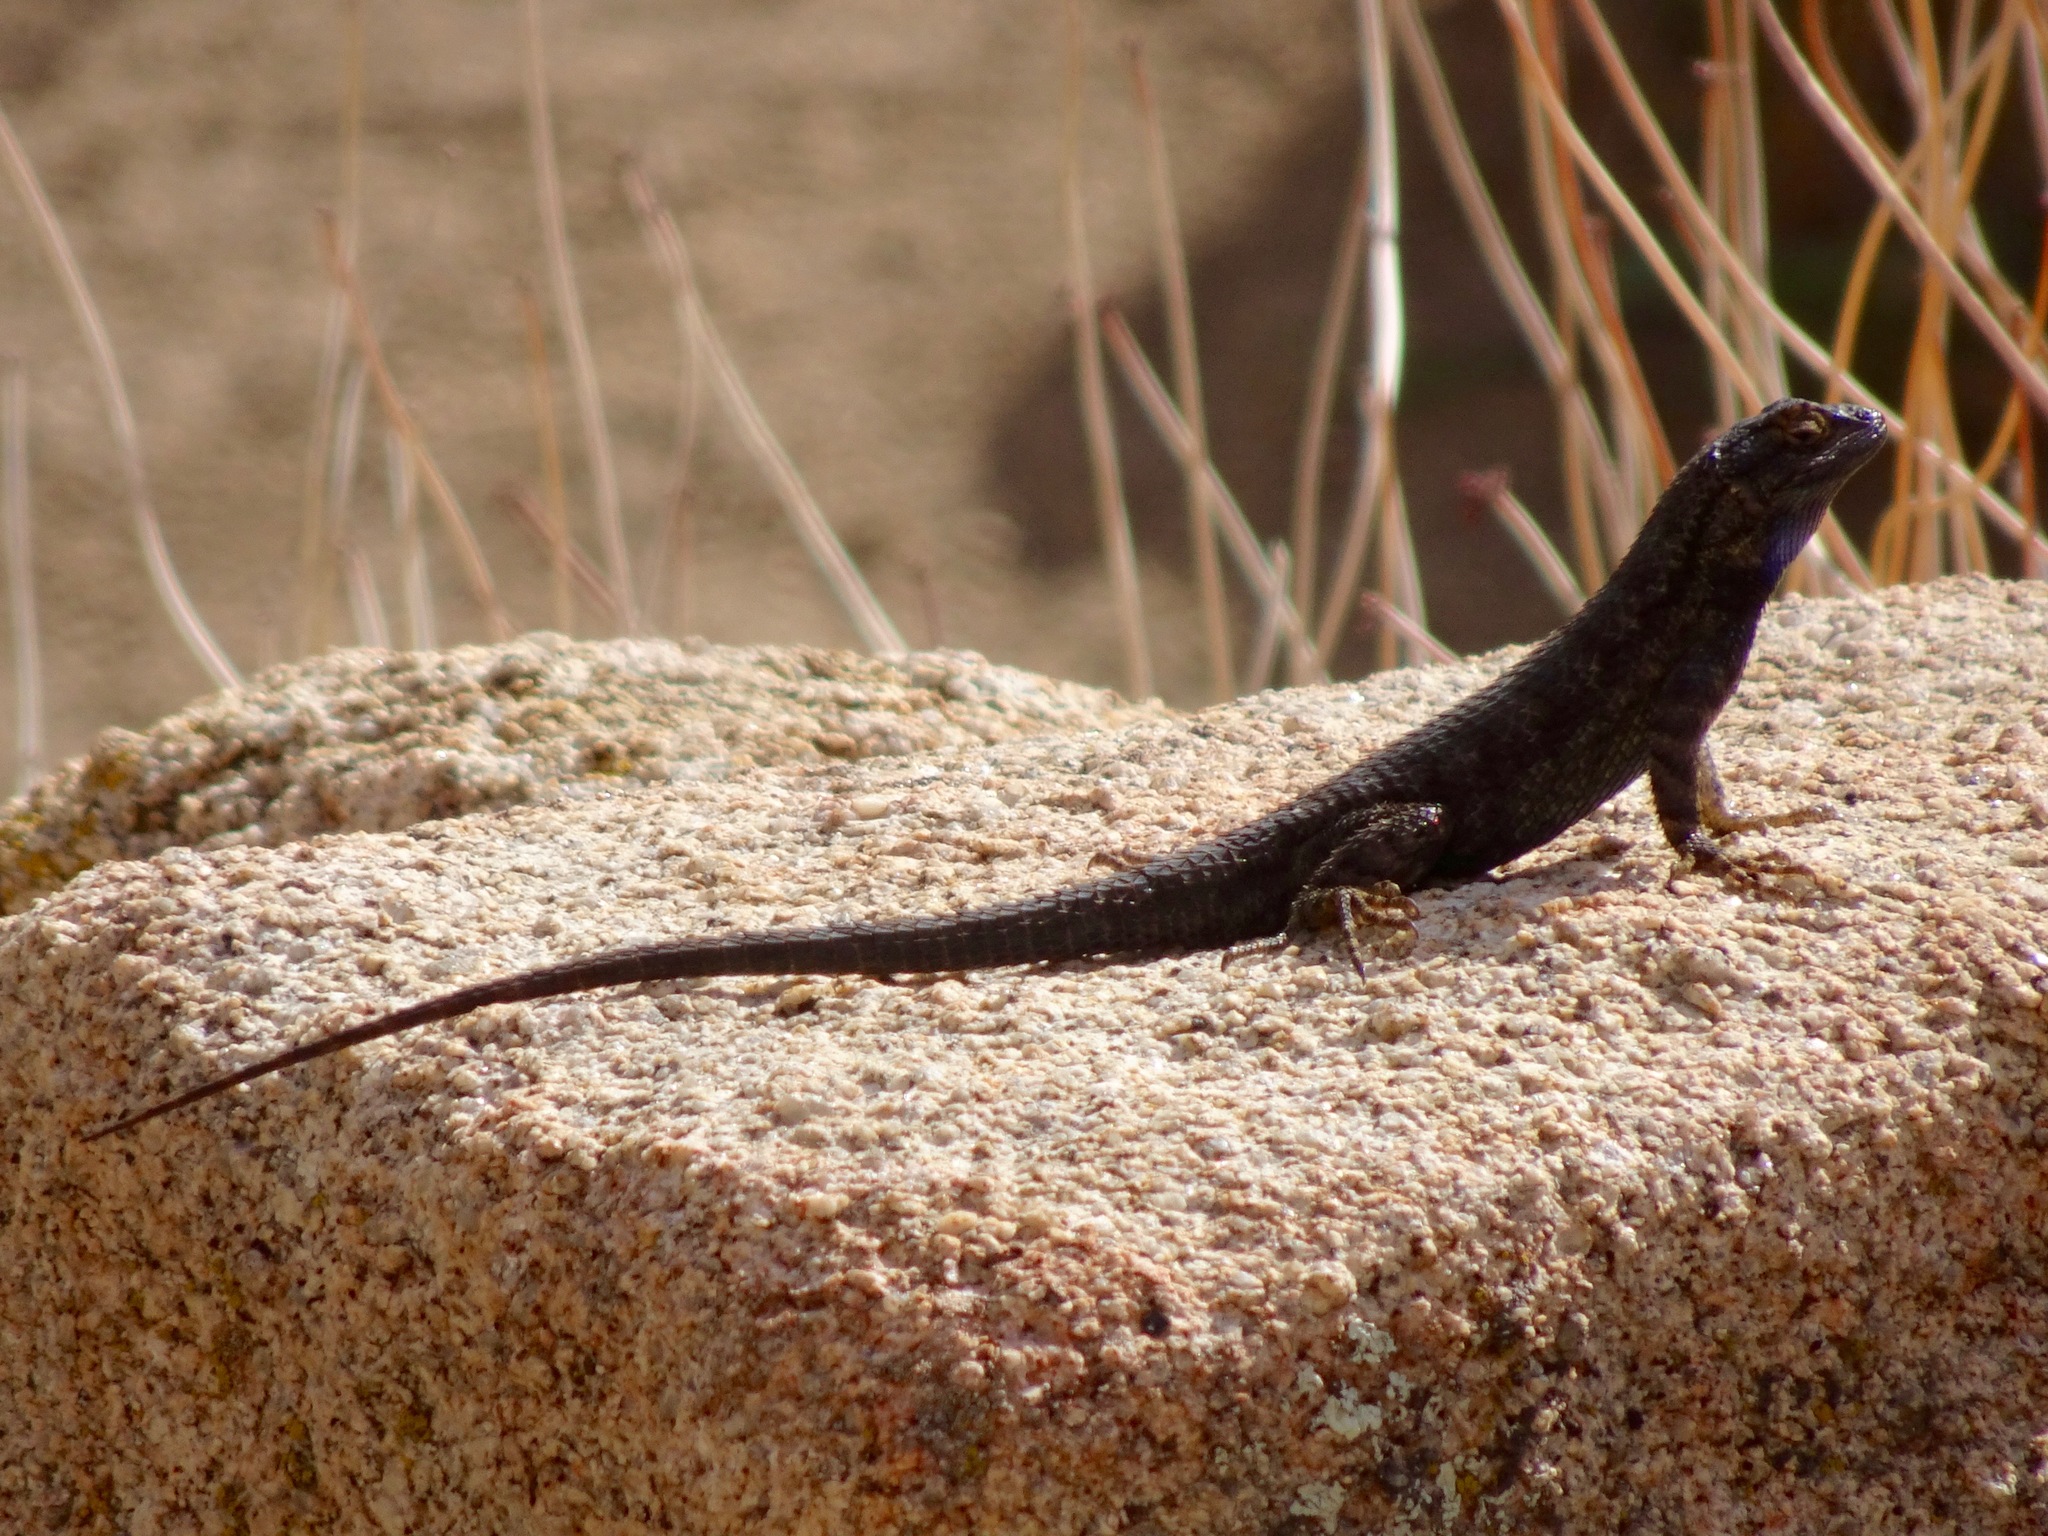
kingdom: Animalia
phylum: Chordata
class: Squamata
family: Phrynosomatidae
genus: Sceloporus
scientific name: Sceloporus occidentalis
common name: Western fence lizard
